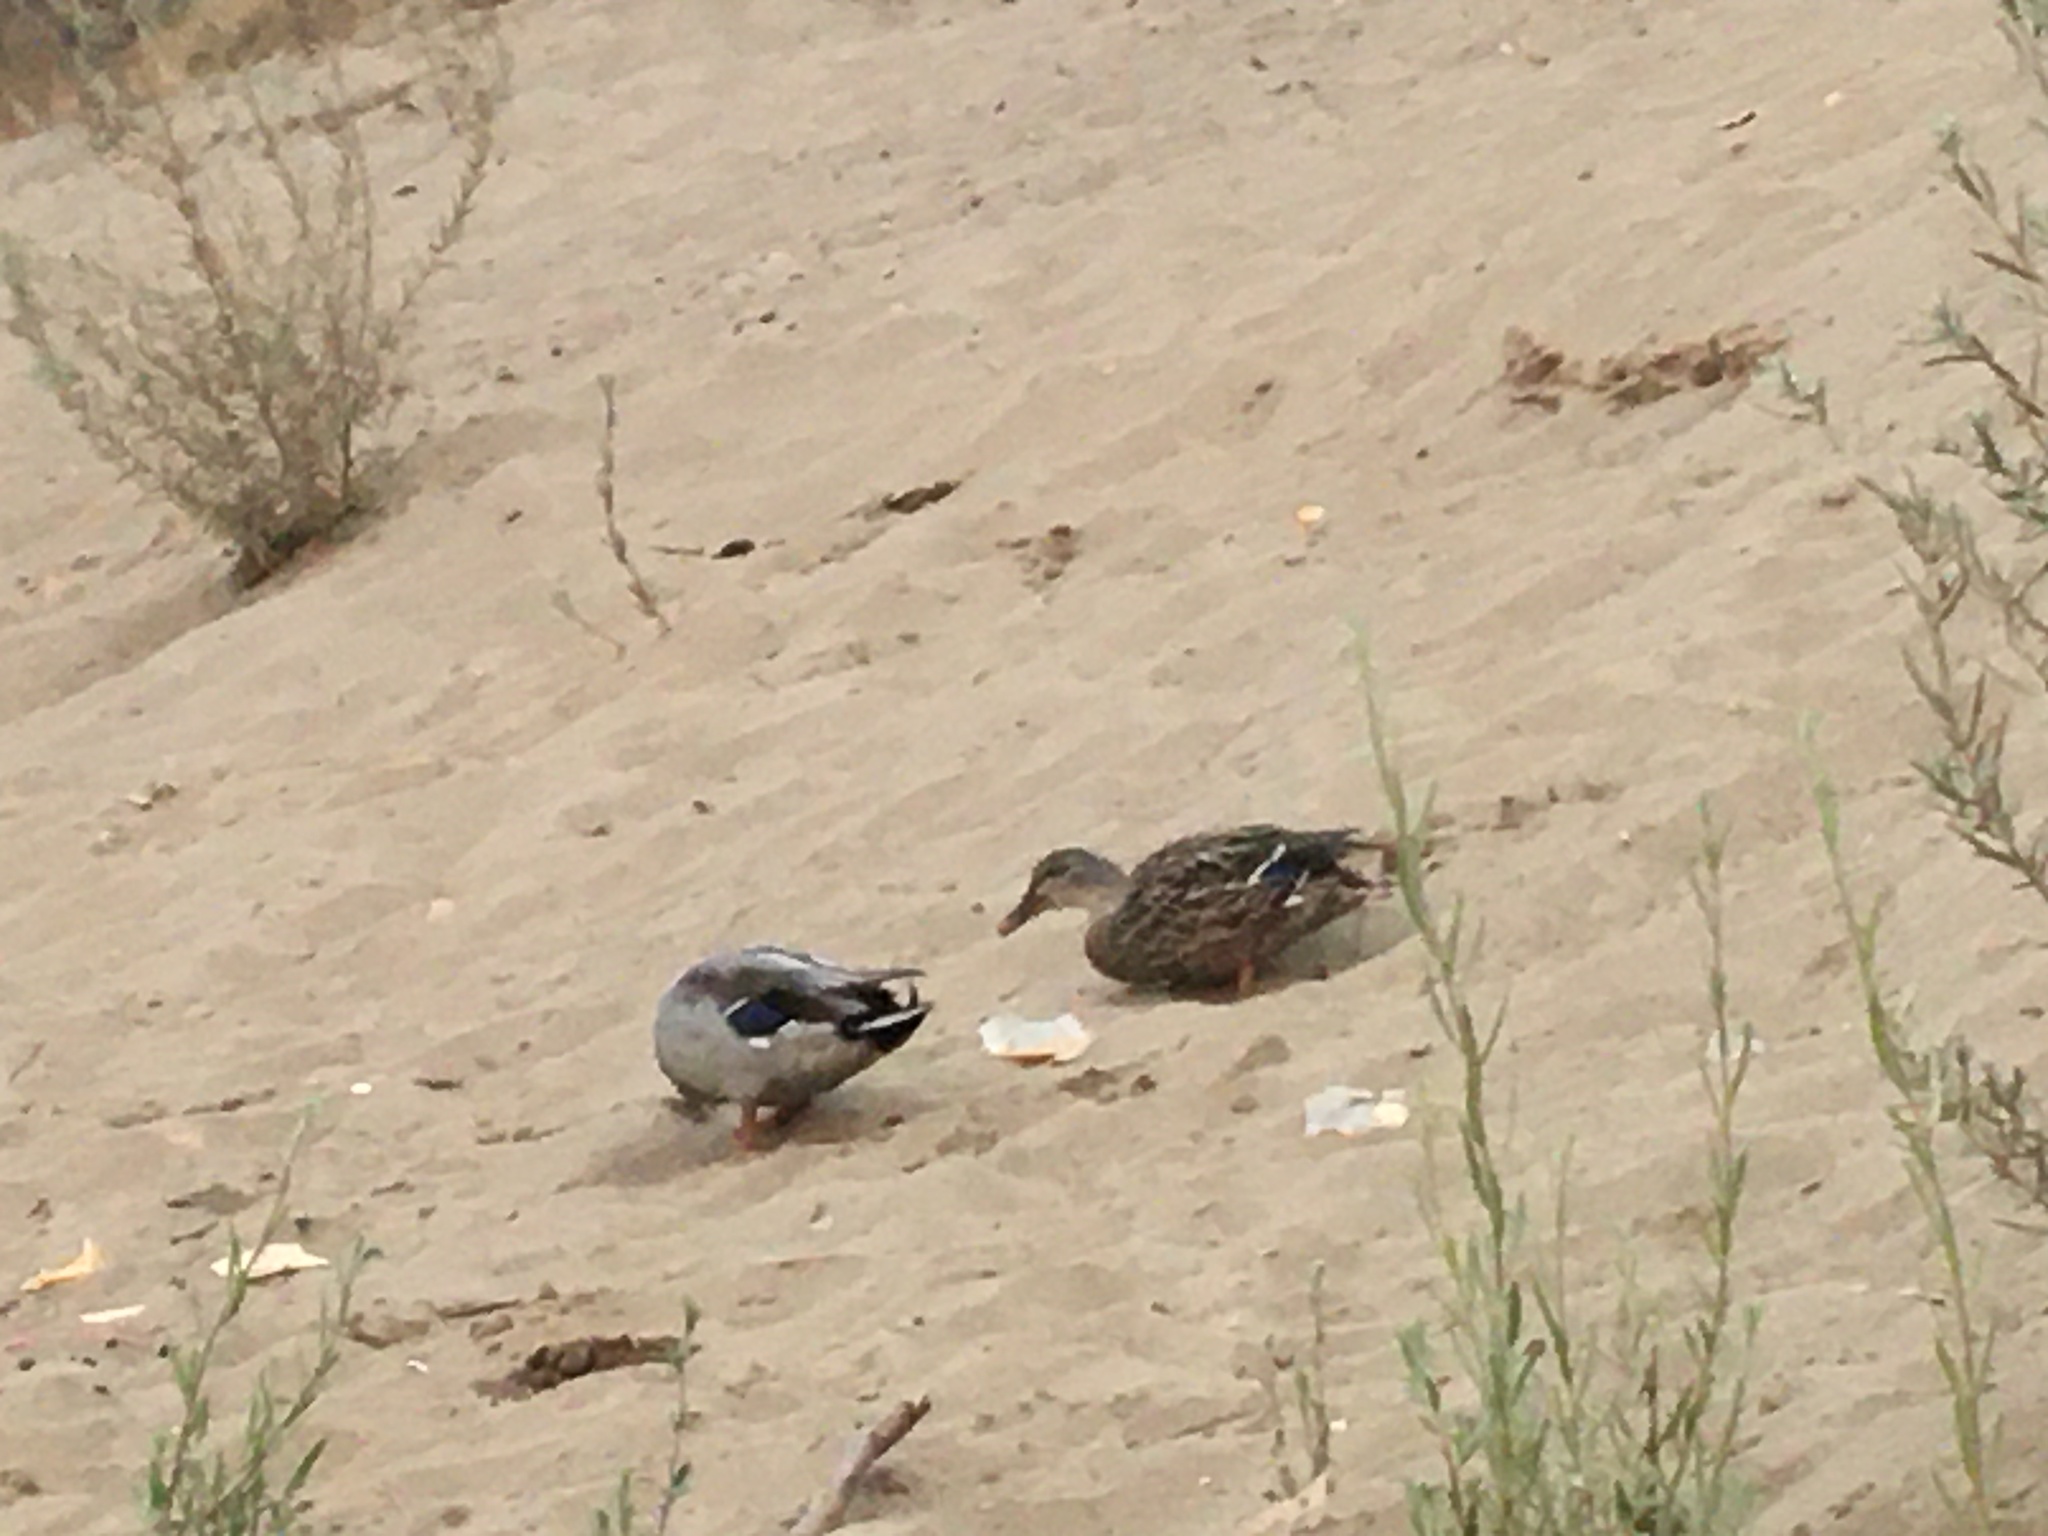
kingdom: Animalia
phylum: Chordata
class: Aves
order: Anseriformes
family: Anatidae
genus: Anas
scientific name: Anas platyrhynchos
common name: Mallard
